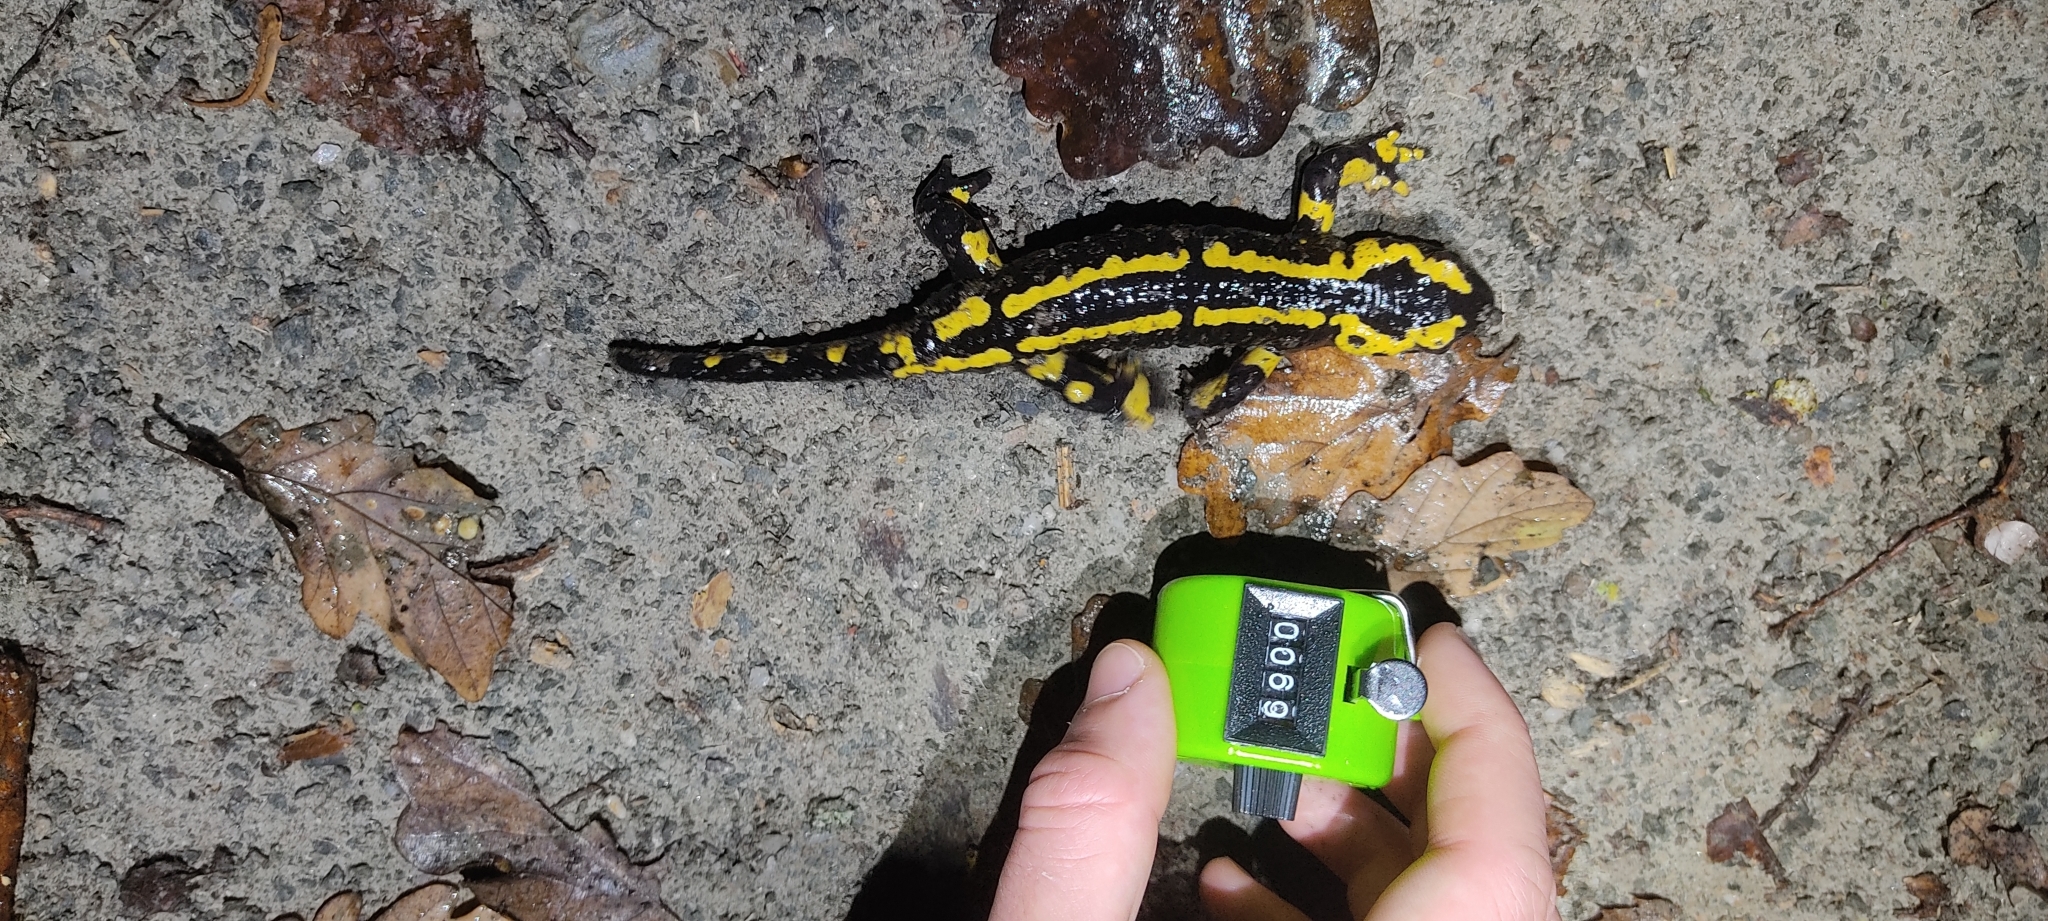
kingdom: Animalia
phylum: Chordata
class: Amphibia
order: Caudata
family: Salamandridae
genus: Salamandra
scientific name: Salamandra salamandra
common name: Fire salamander
